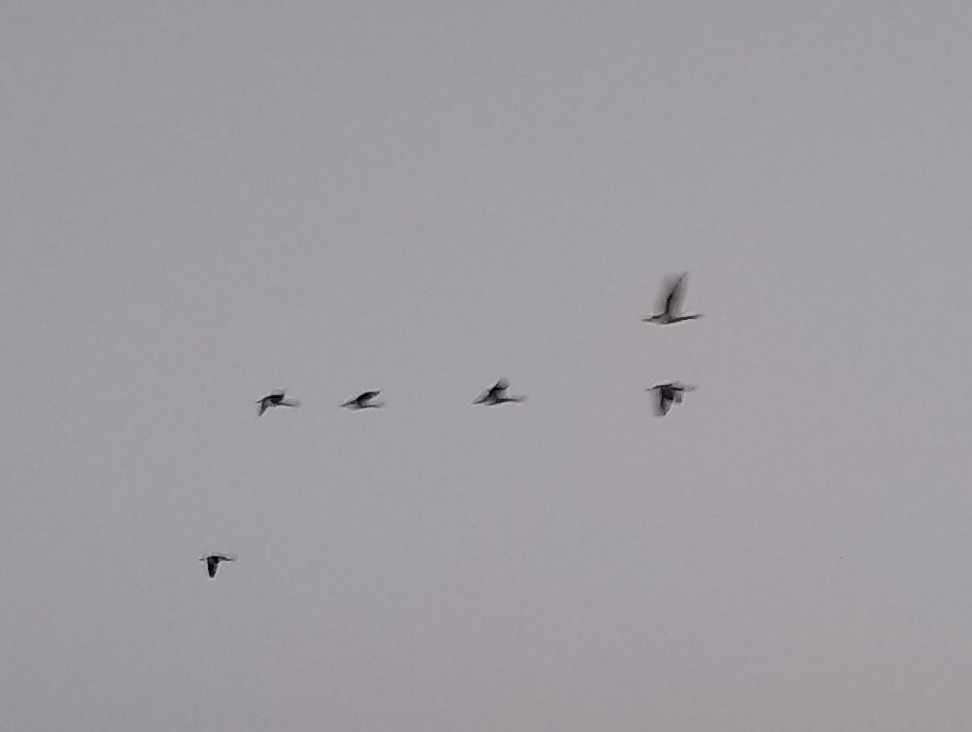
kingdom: Animalia
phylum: Chordata
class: Aves
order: Anseriformes
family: Anatidae
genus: Anas
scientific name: Anas platyrhynchos
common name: Mallard
